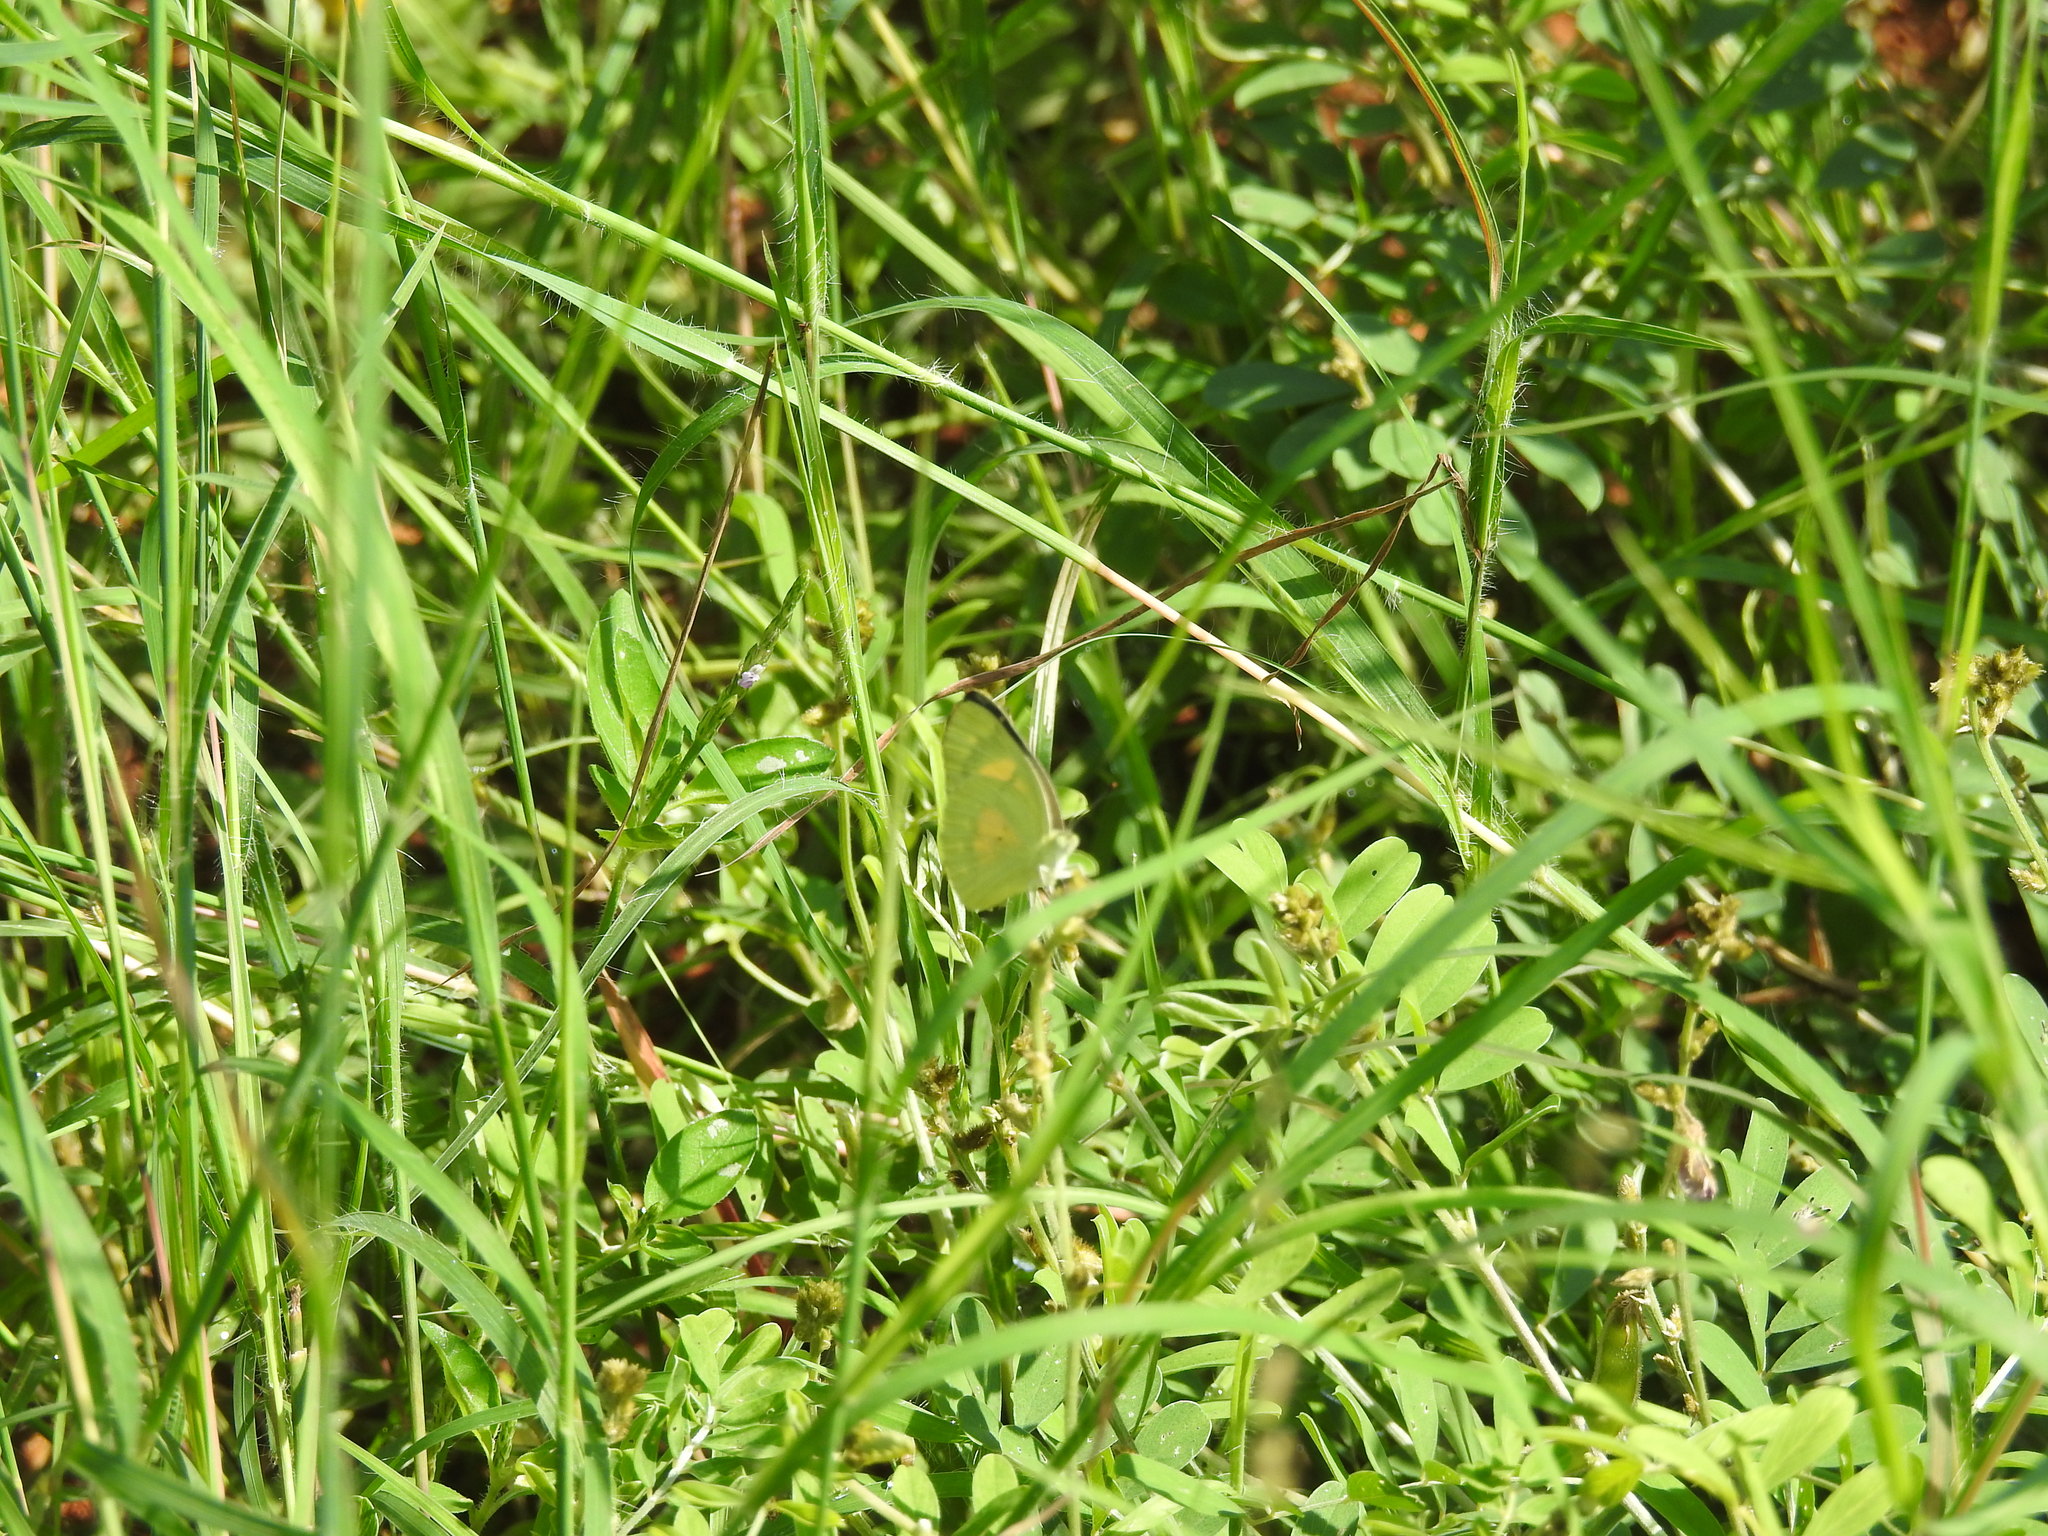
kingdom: Animalia
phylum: Arthropoda
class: Insecta
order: Lepidoptera
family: Pieridae
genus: Colotis
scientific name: Colotis amata
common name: Small salmon arab
